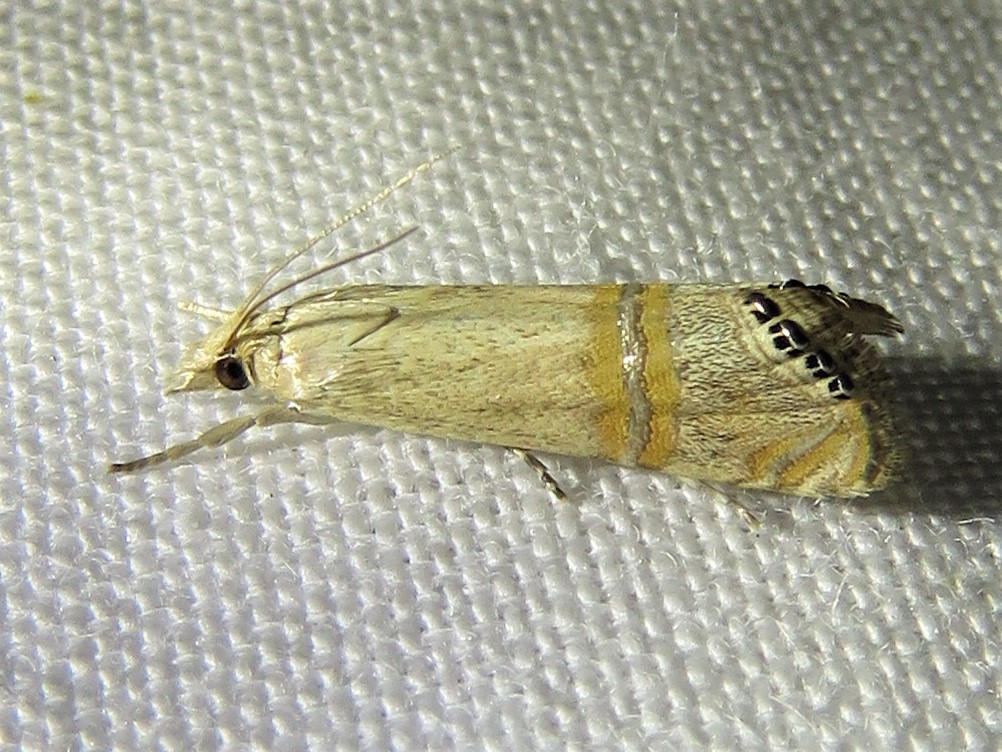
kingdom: Animalia
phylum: Arthropoda
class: Insecta
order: Lepidoptera
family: Crambidae
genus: Euchromius
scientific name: Euchromius ocellea
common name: Necklace veneer moth
